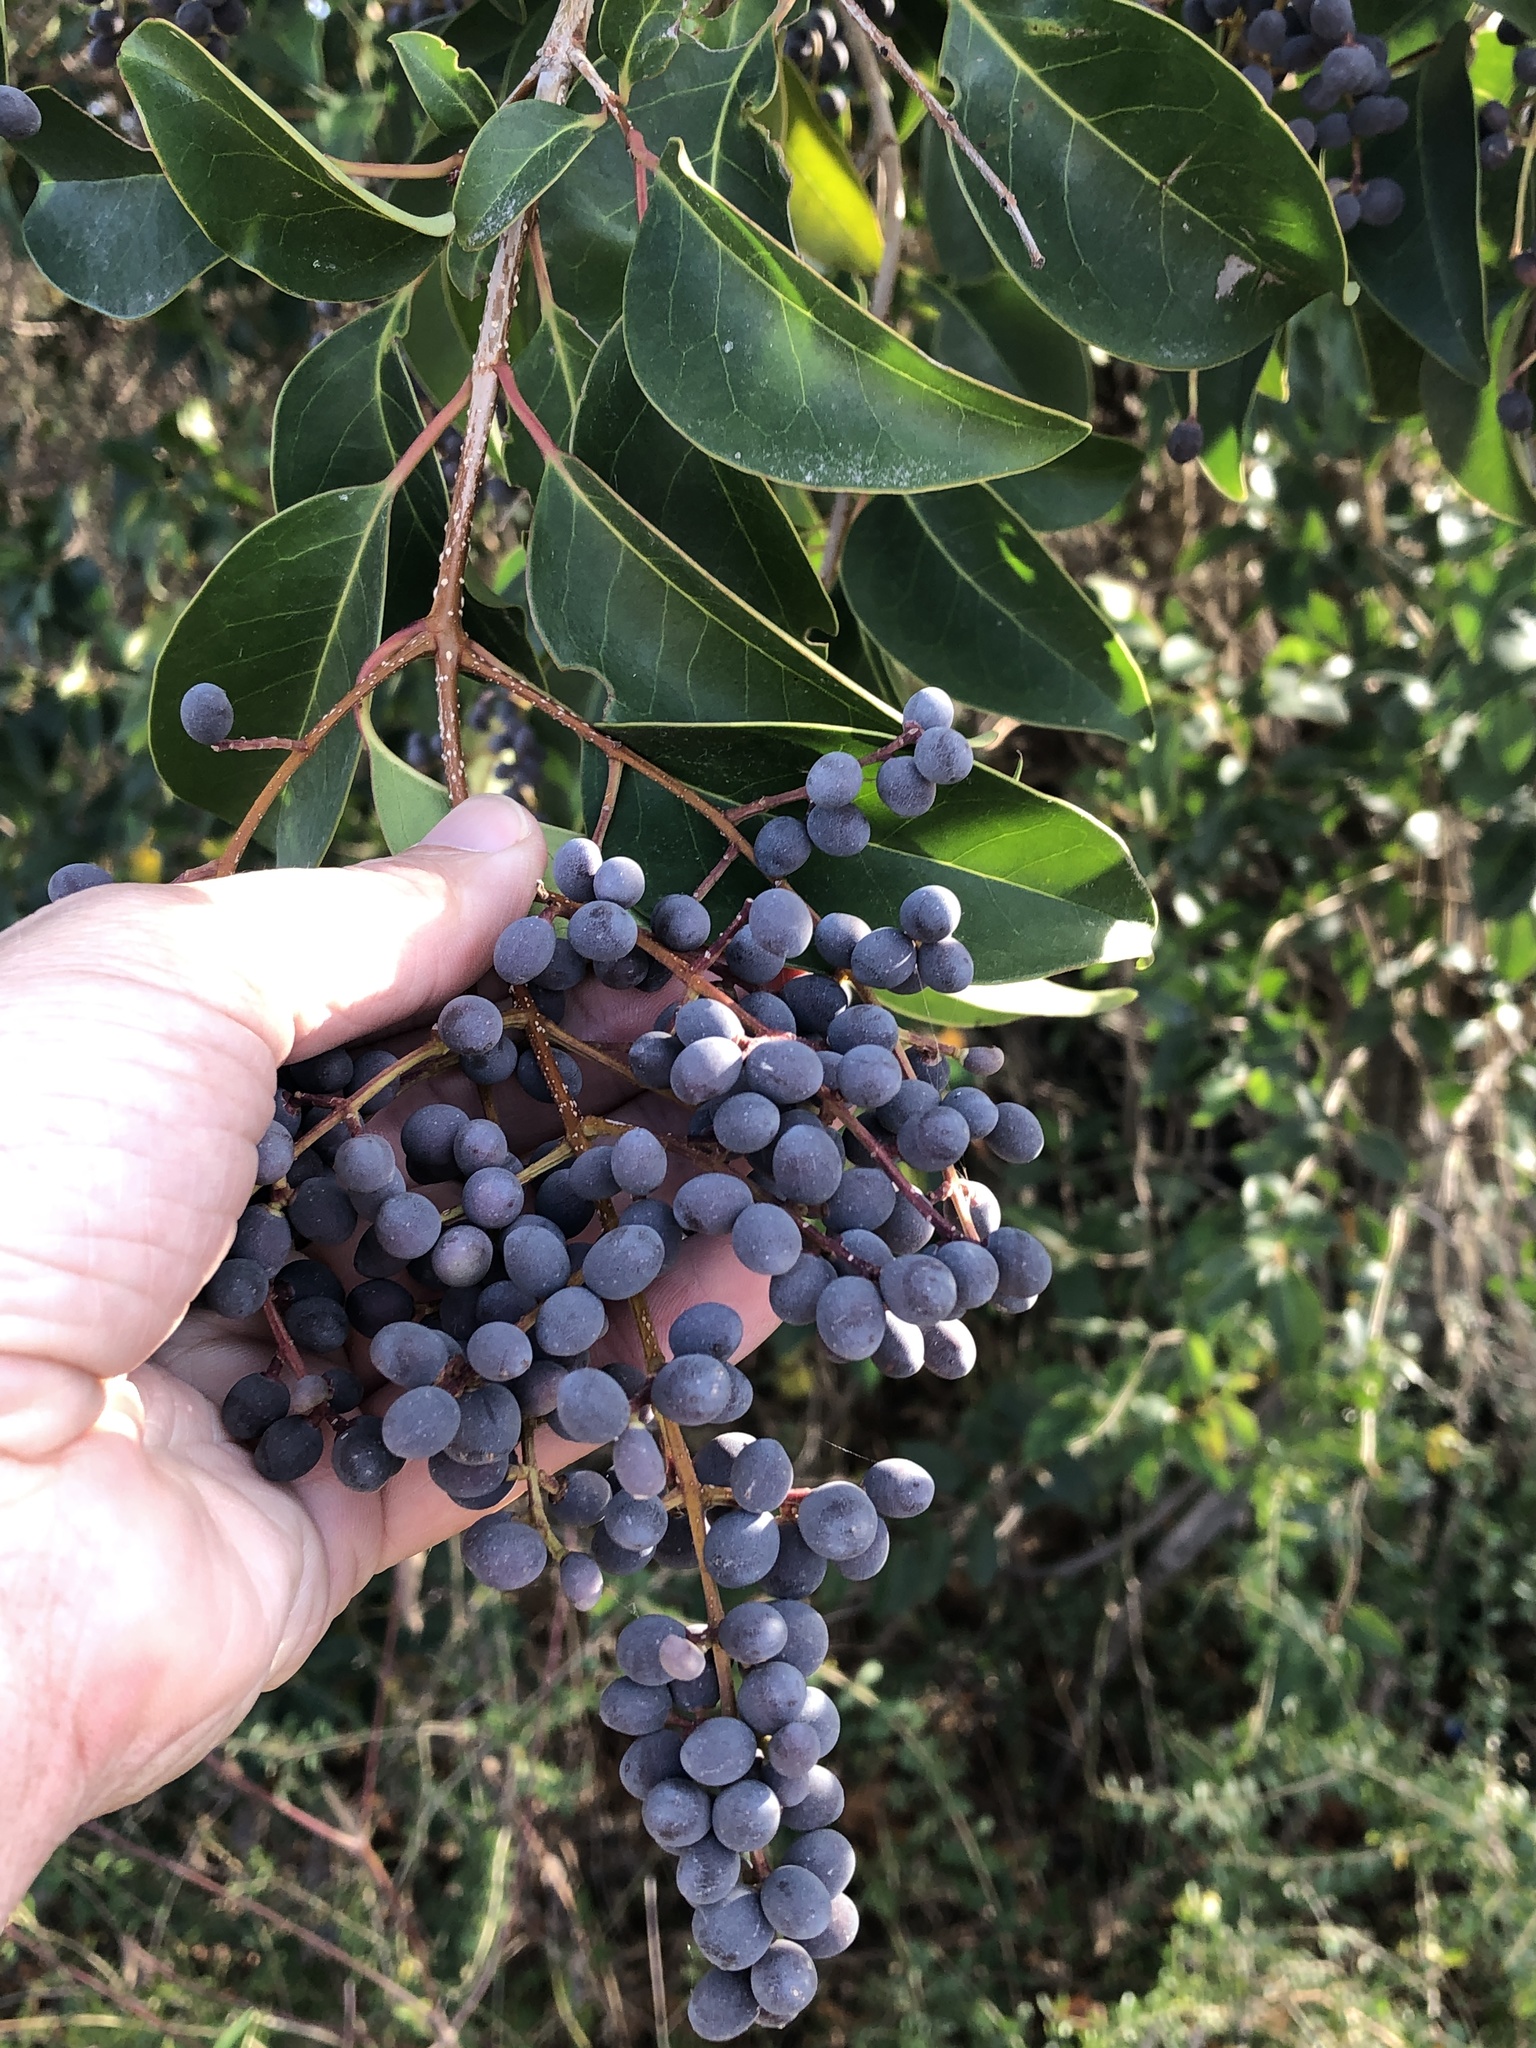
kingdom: Plantae
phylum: Tracheophyta
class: Magnoliopsida
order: Lamiales
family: Oleaceae
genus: Ligustrum
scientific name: Ligustrum lucidum
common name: Glossy privet
